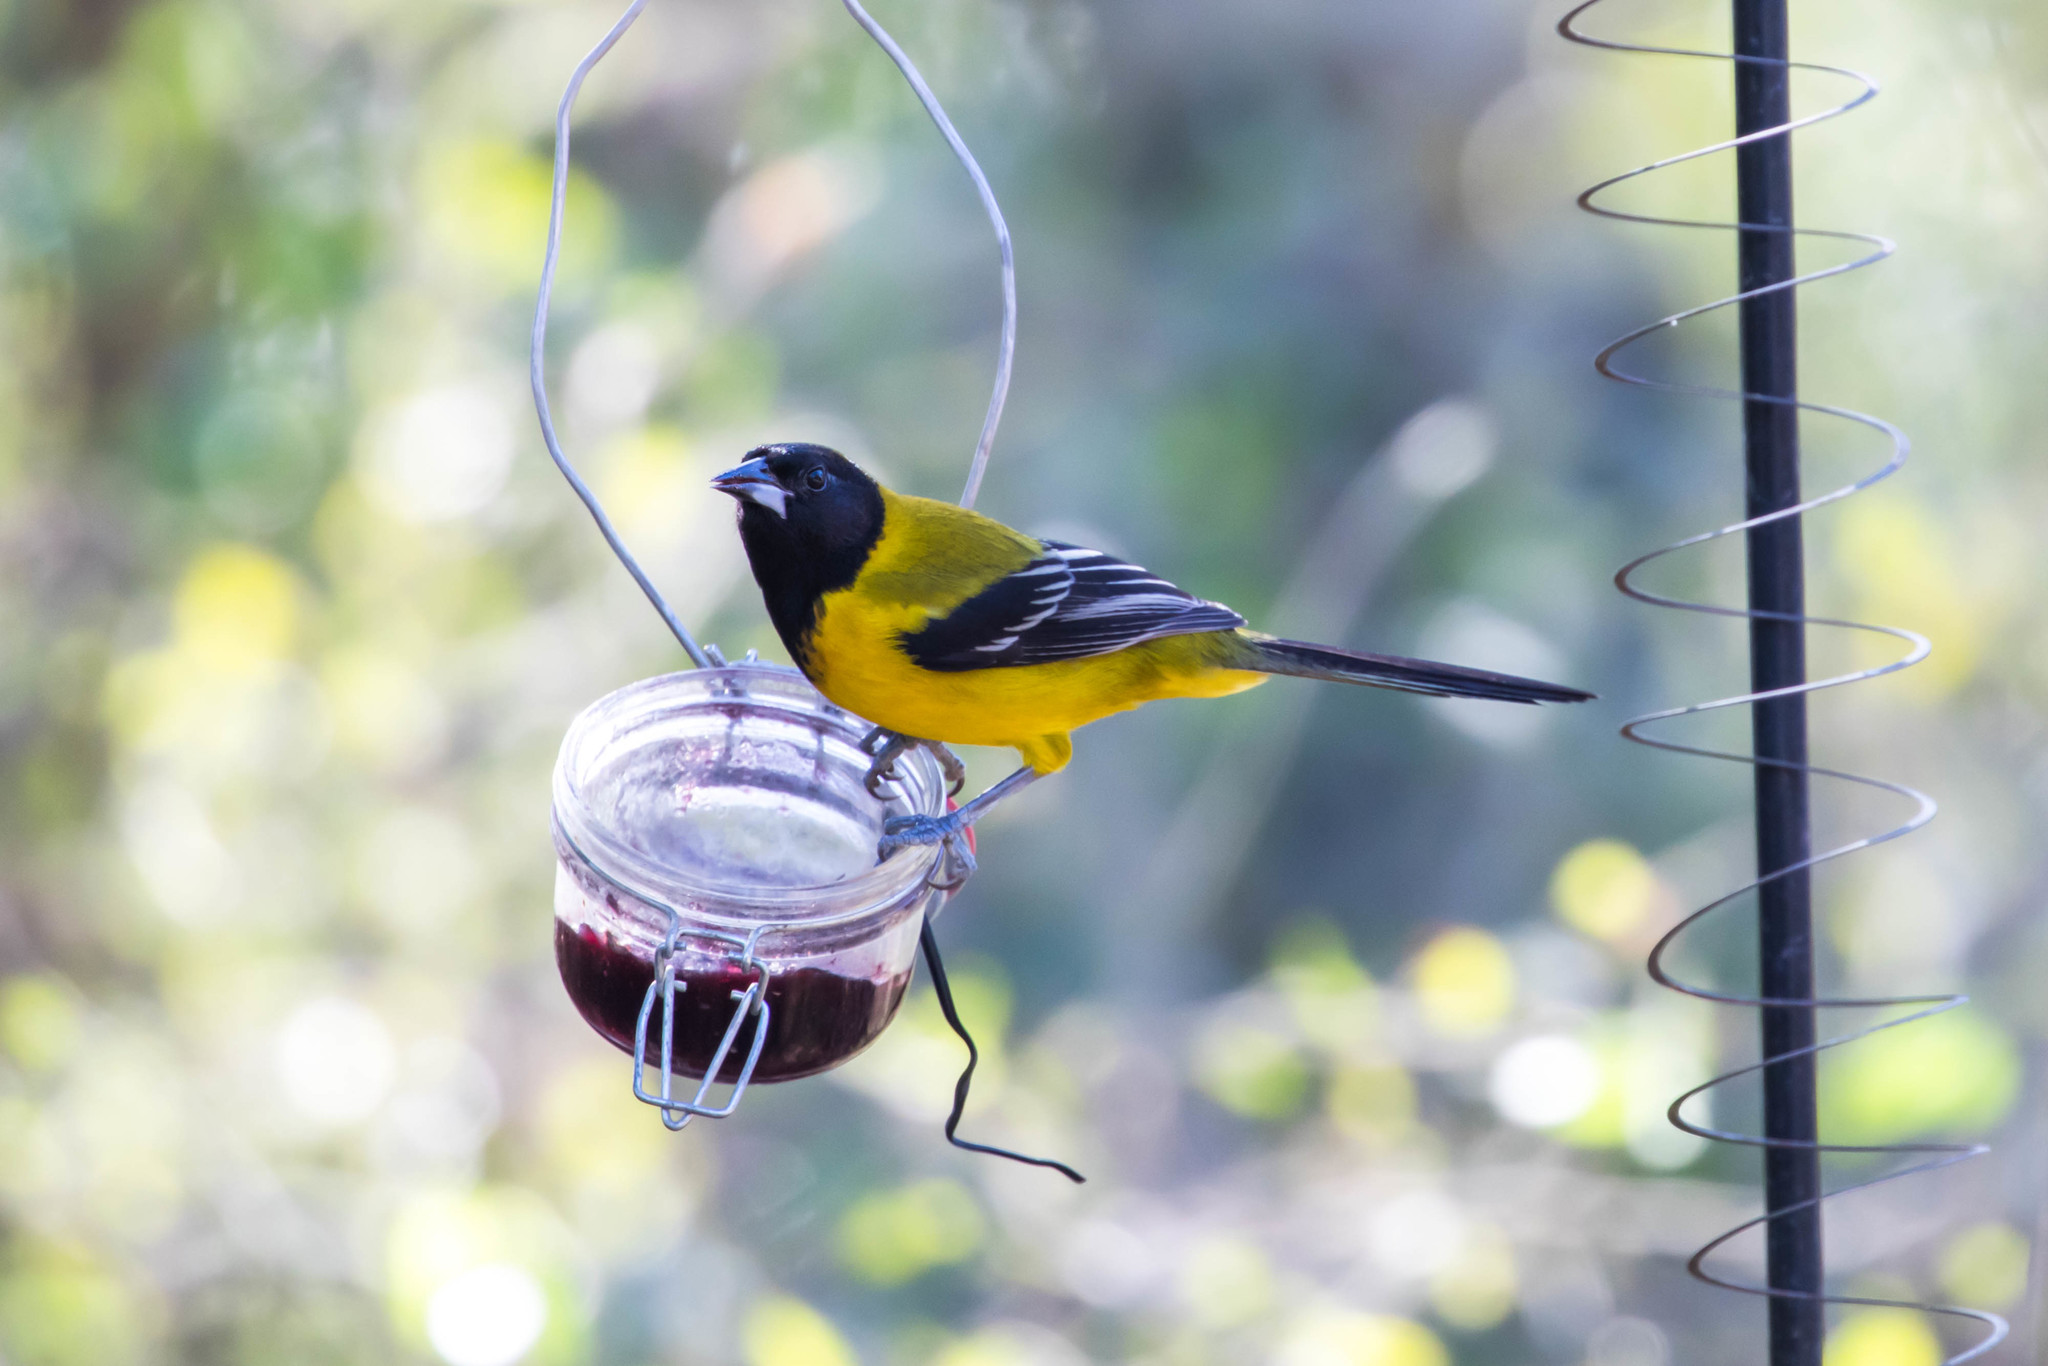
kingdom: Animalia
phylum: Chordata
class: Aves
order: Passeriformes
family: Icteridae
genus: Icterus
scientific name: Icterus graduacauda
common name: Audubon's oriole
